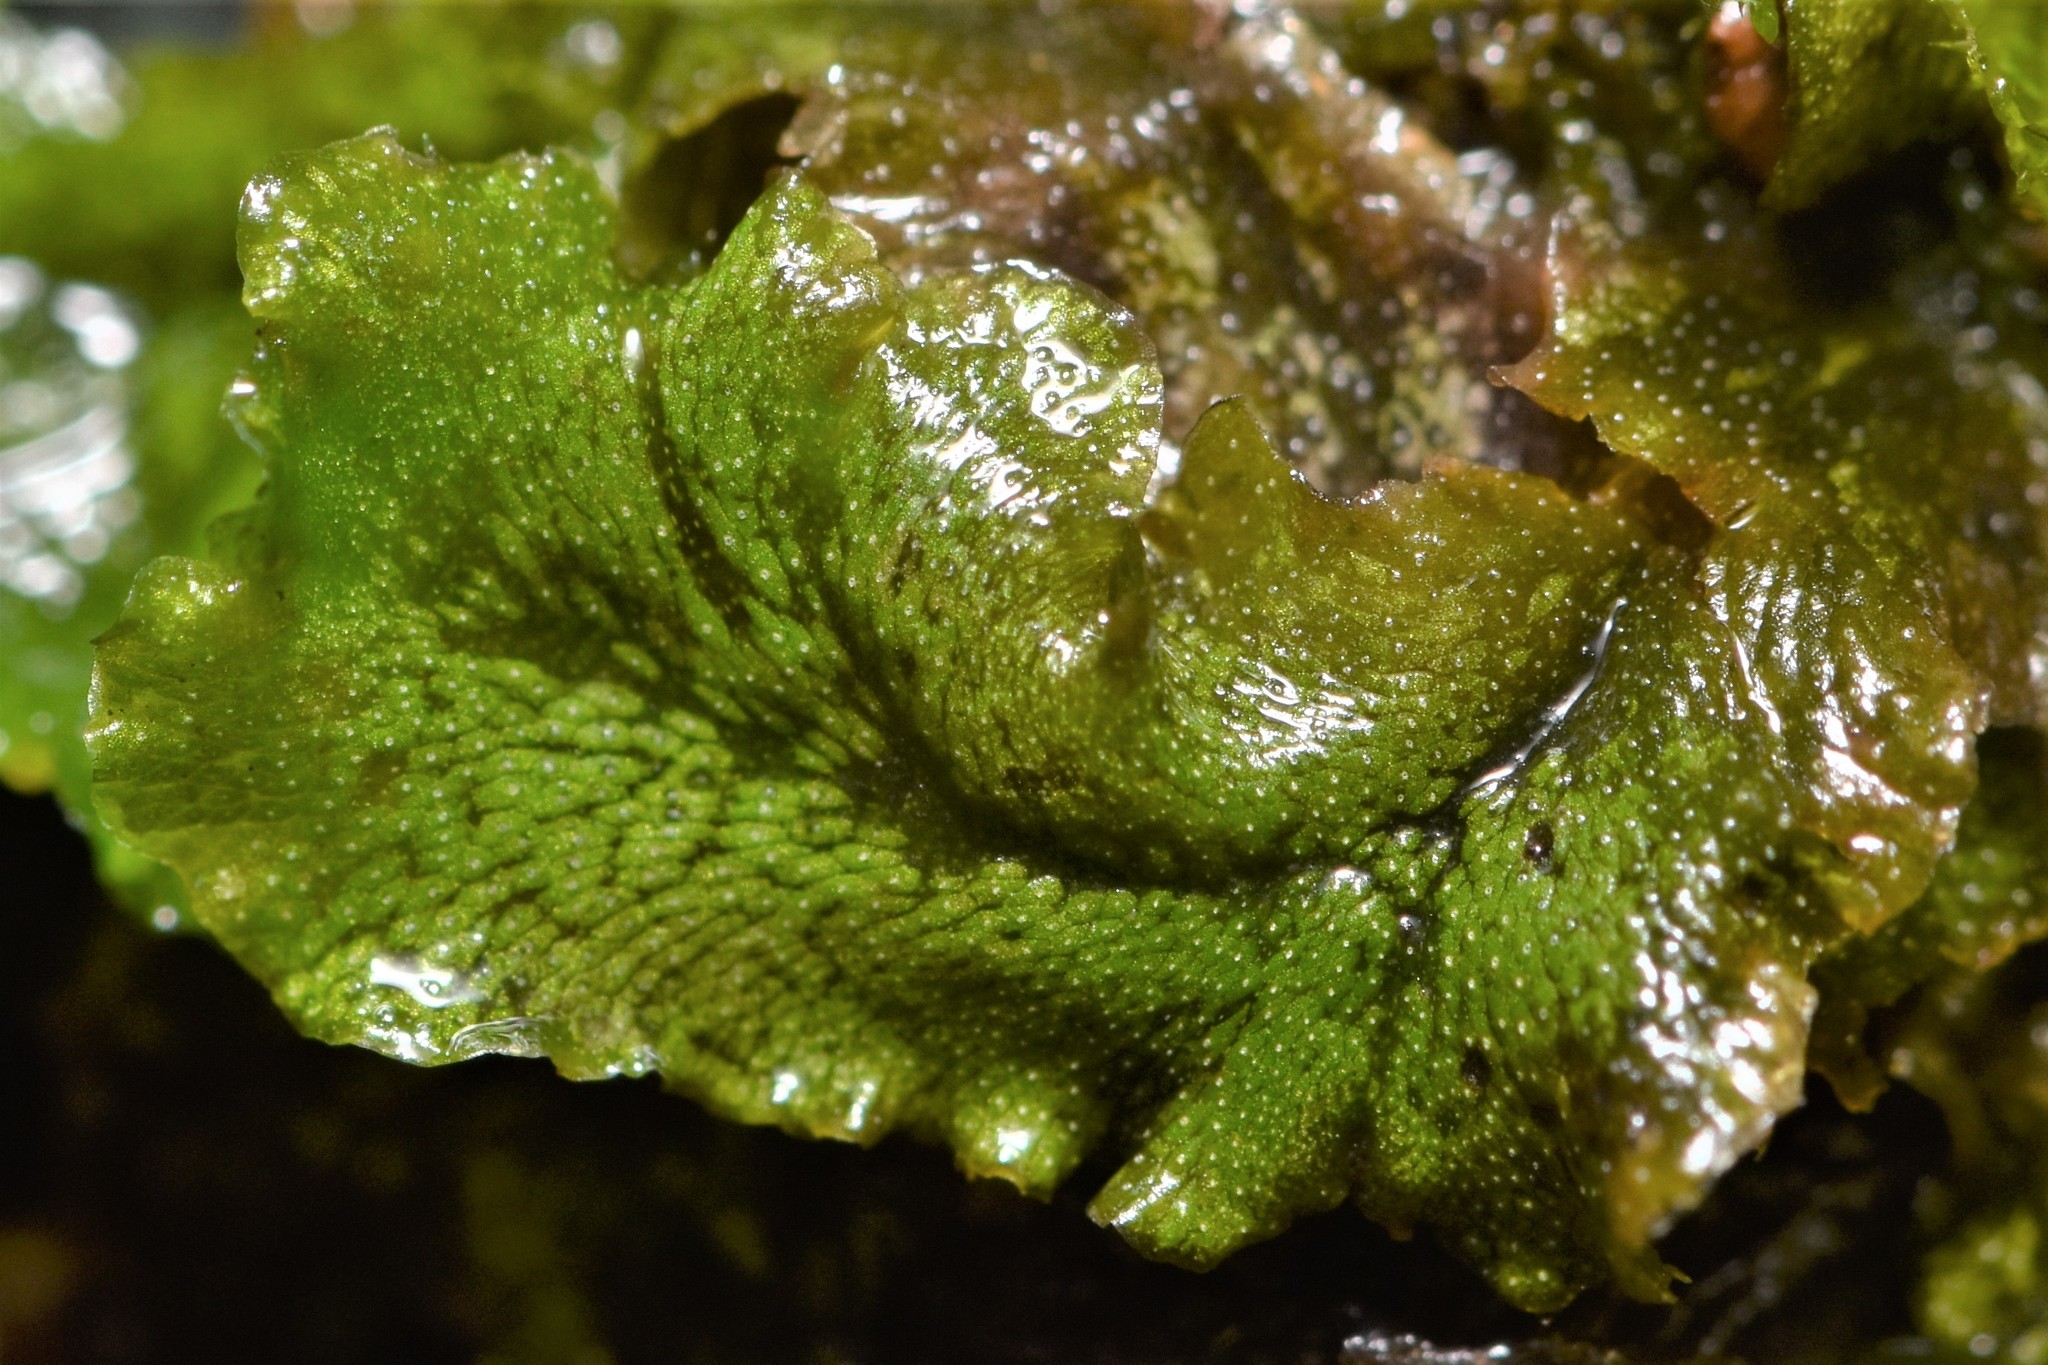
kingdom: Plantae
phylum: Marchantiophyta
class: Marchantiopsida
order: Marchantiales
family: Marchantiaceae
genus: Marchantia
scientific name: Marchantia polymorpha
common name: Common liverwort
